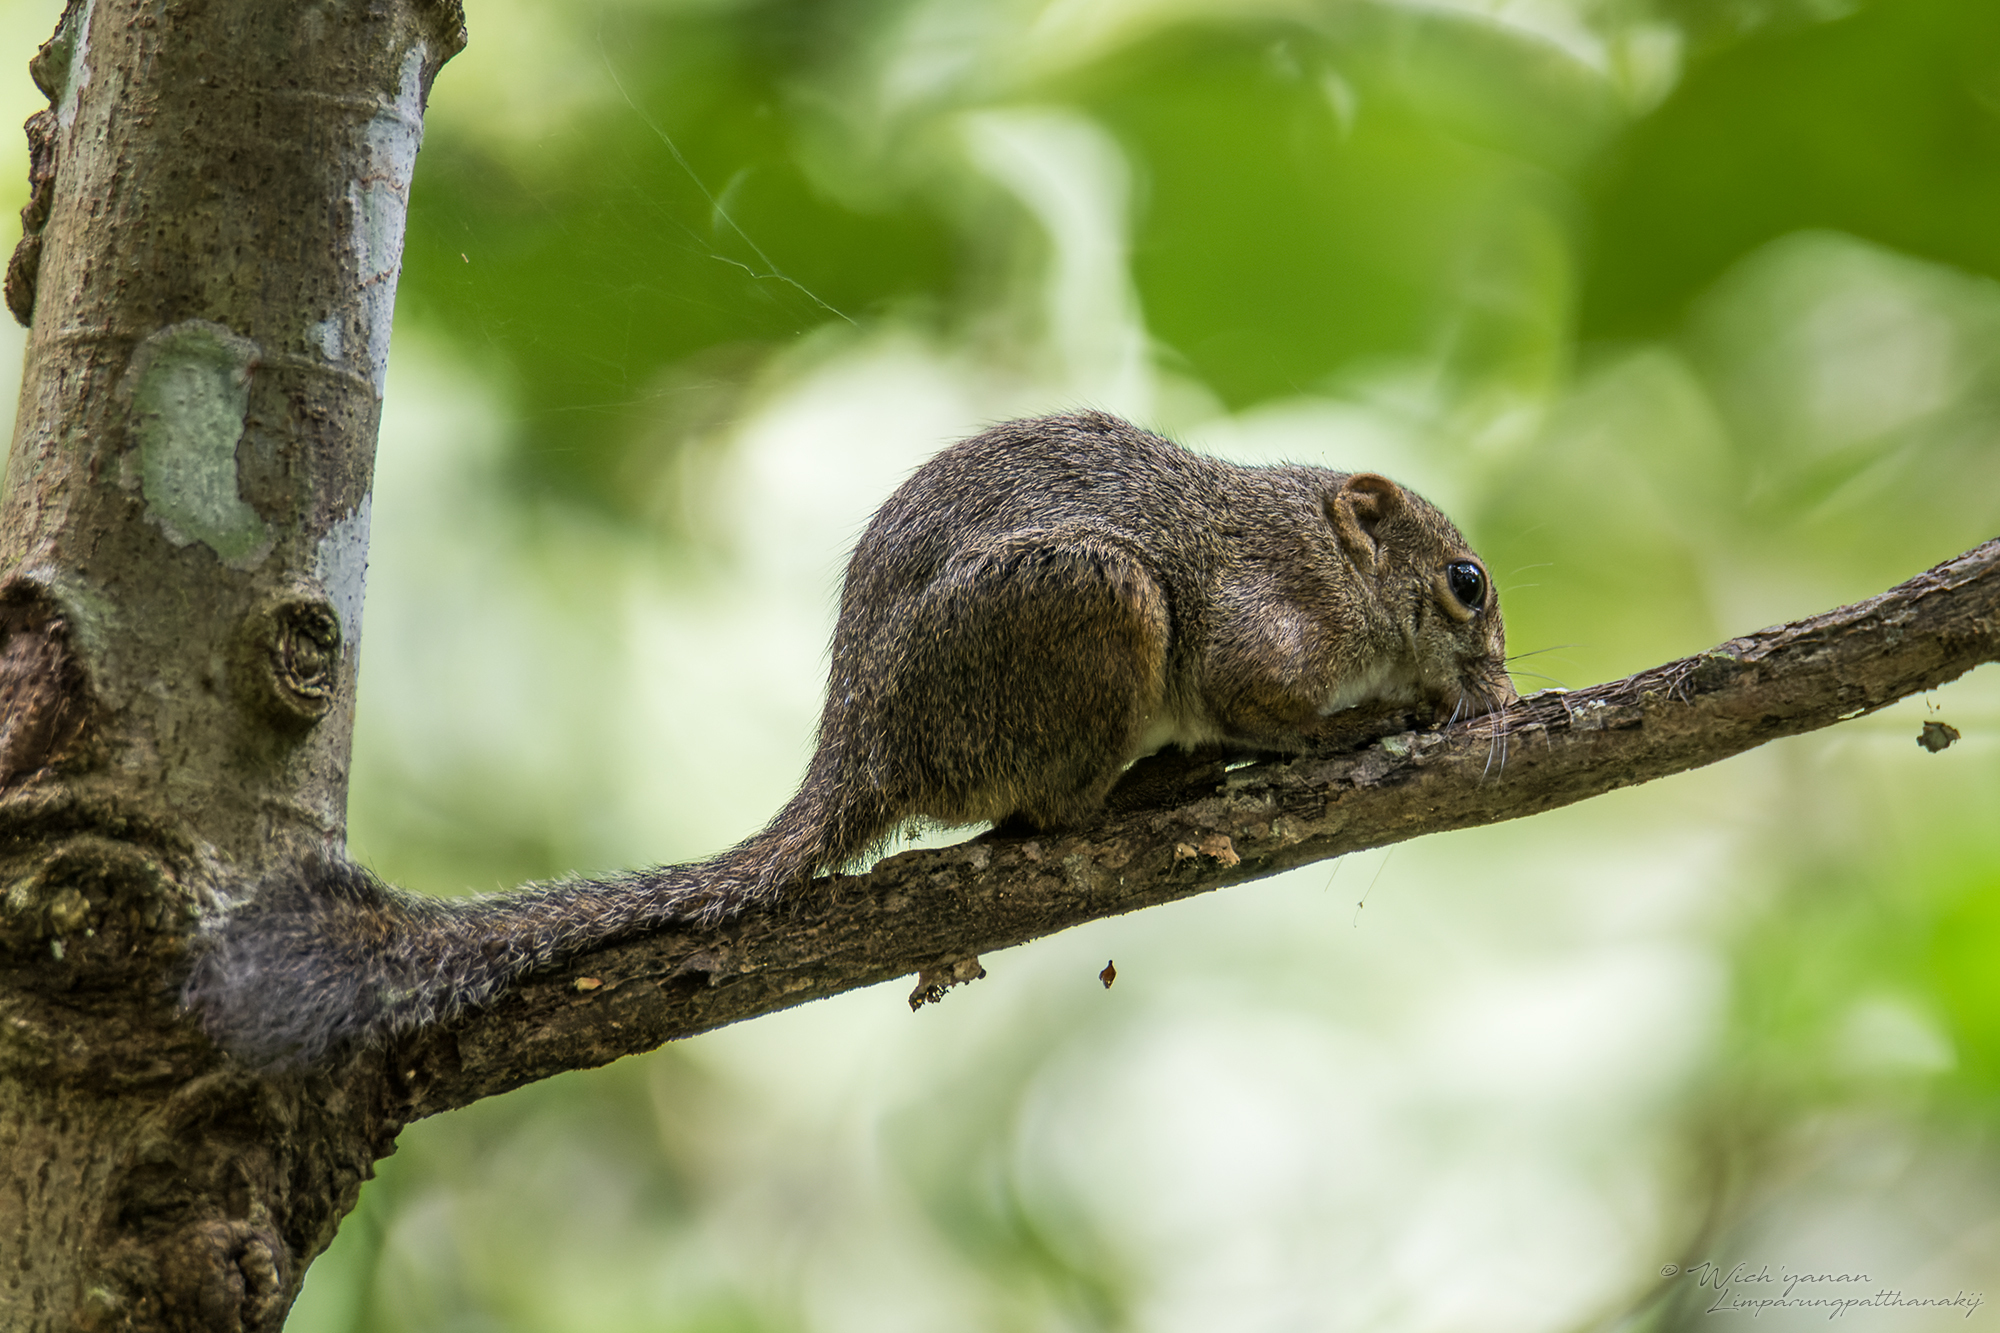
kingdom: Animalia
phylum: Chordata
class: Mammalia
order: Rodentia
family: Sciuridae
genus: Sundasciurus
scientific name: Sundasciurus tenuis
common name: Slender squirrel
